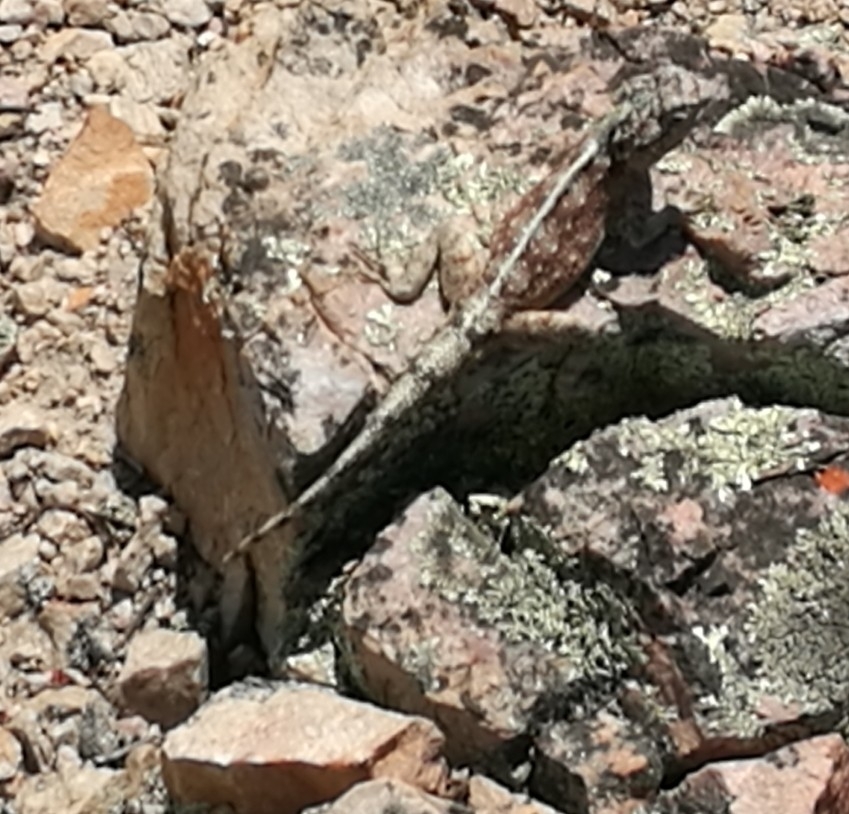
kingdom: Animalia
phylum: Chordata
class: Squamata
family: Agamidae
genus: Agama
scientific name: Agama atra
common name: Southern african rock agama
